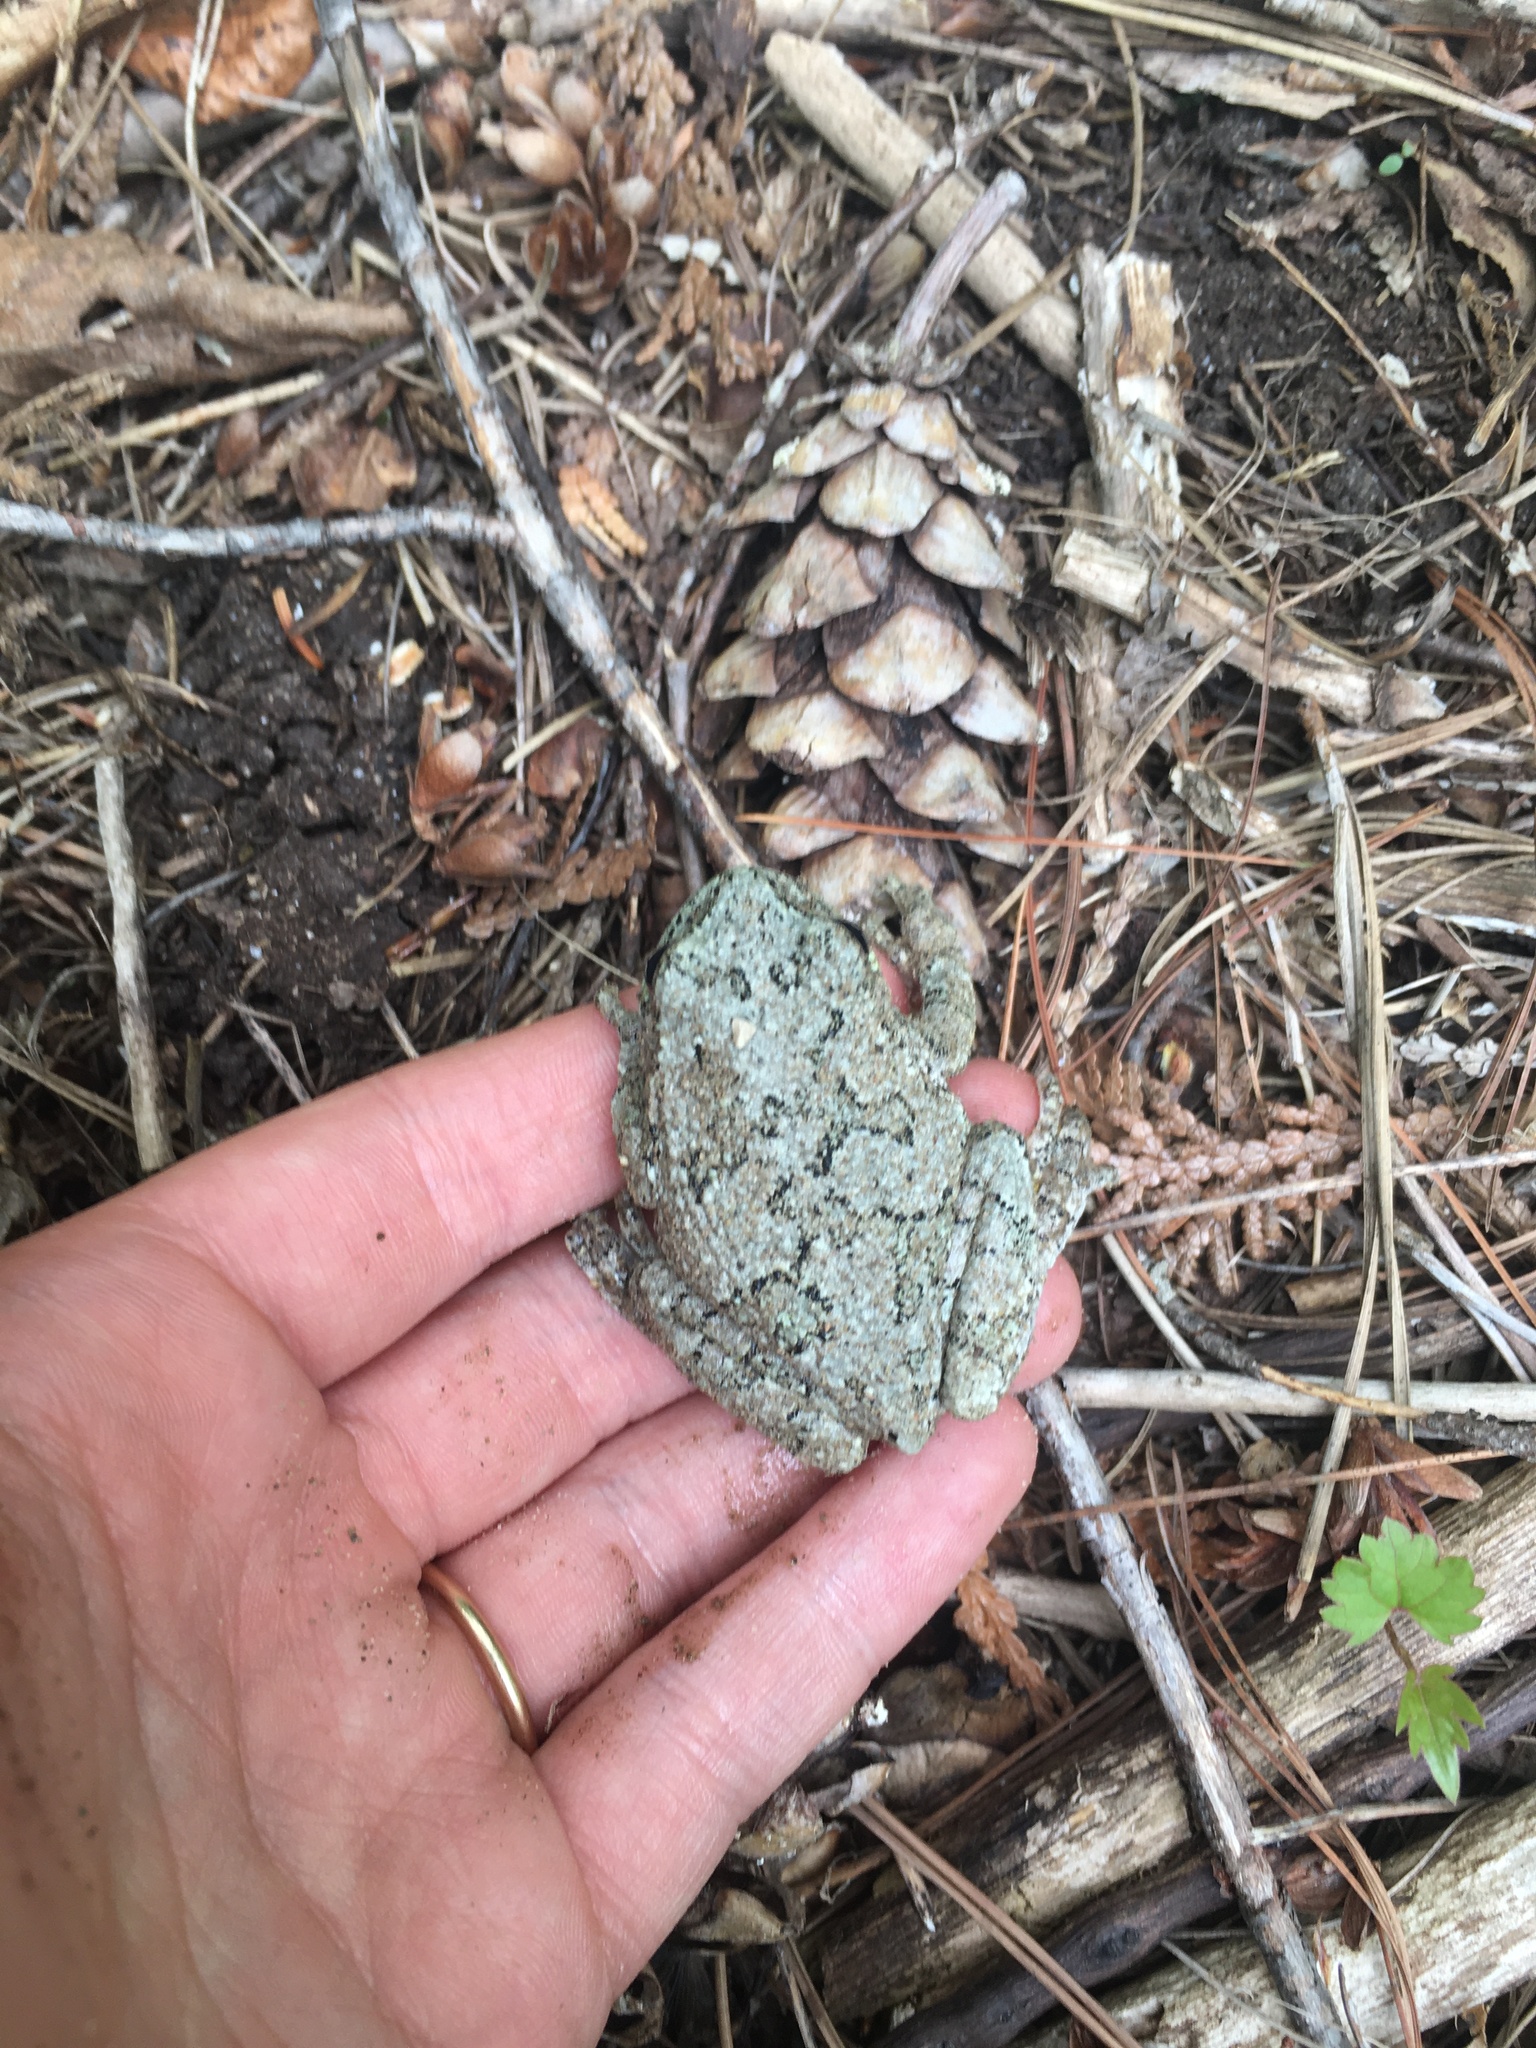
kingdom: Animalia
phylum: Chordata
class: Amphibia
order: Anura
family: Hylidae
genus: Dryophytes
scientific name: Dryophytes versicolor
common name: Gray treefrog
